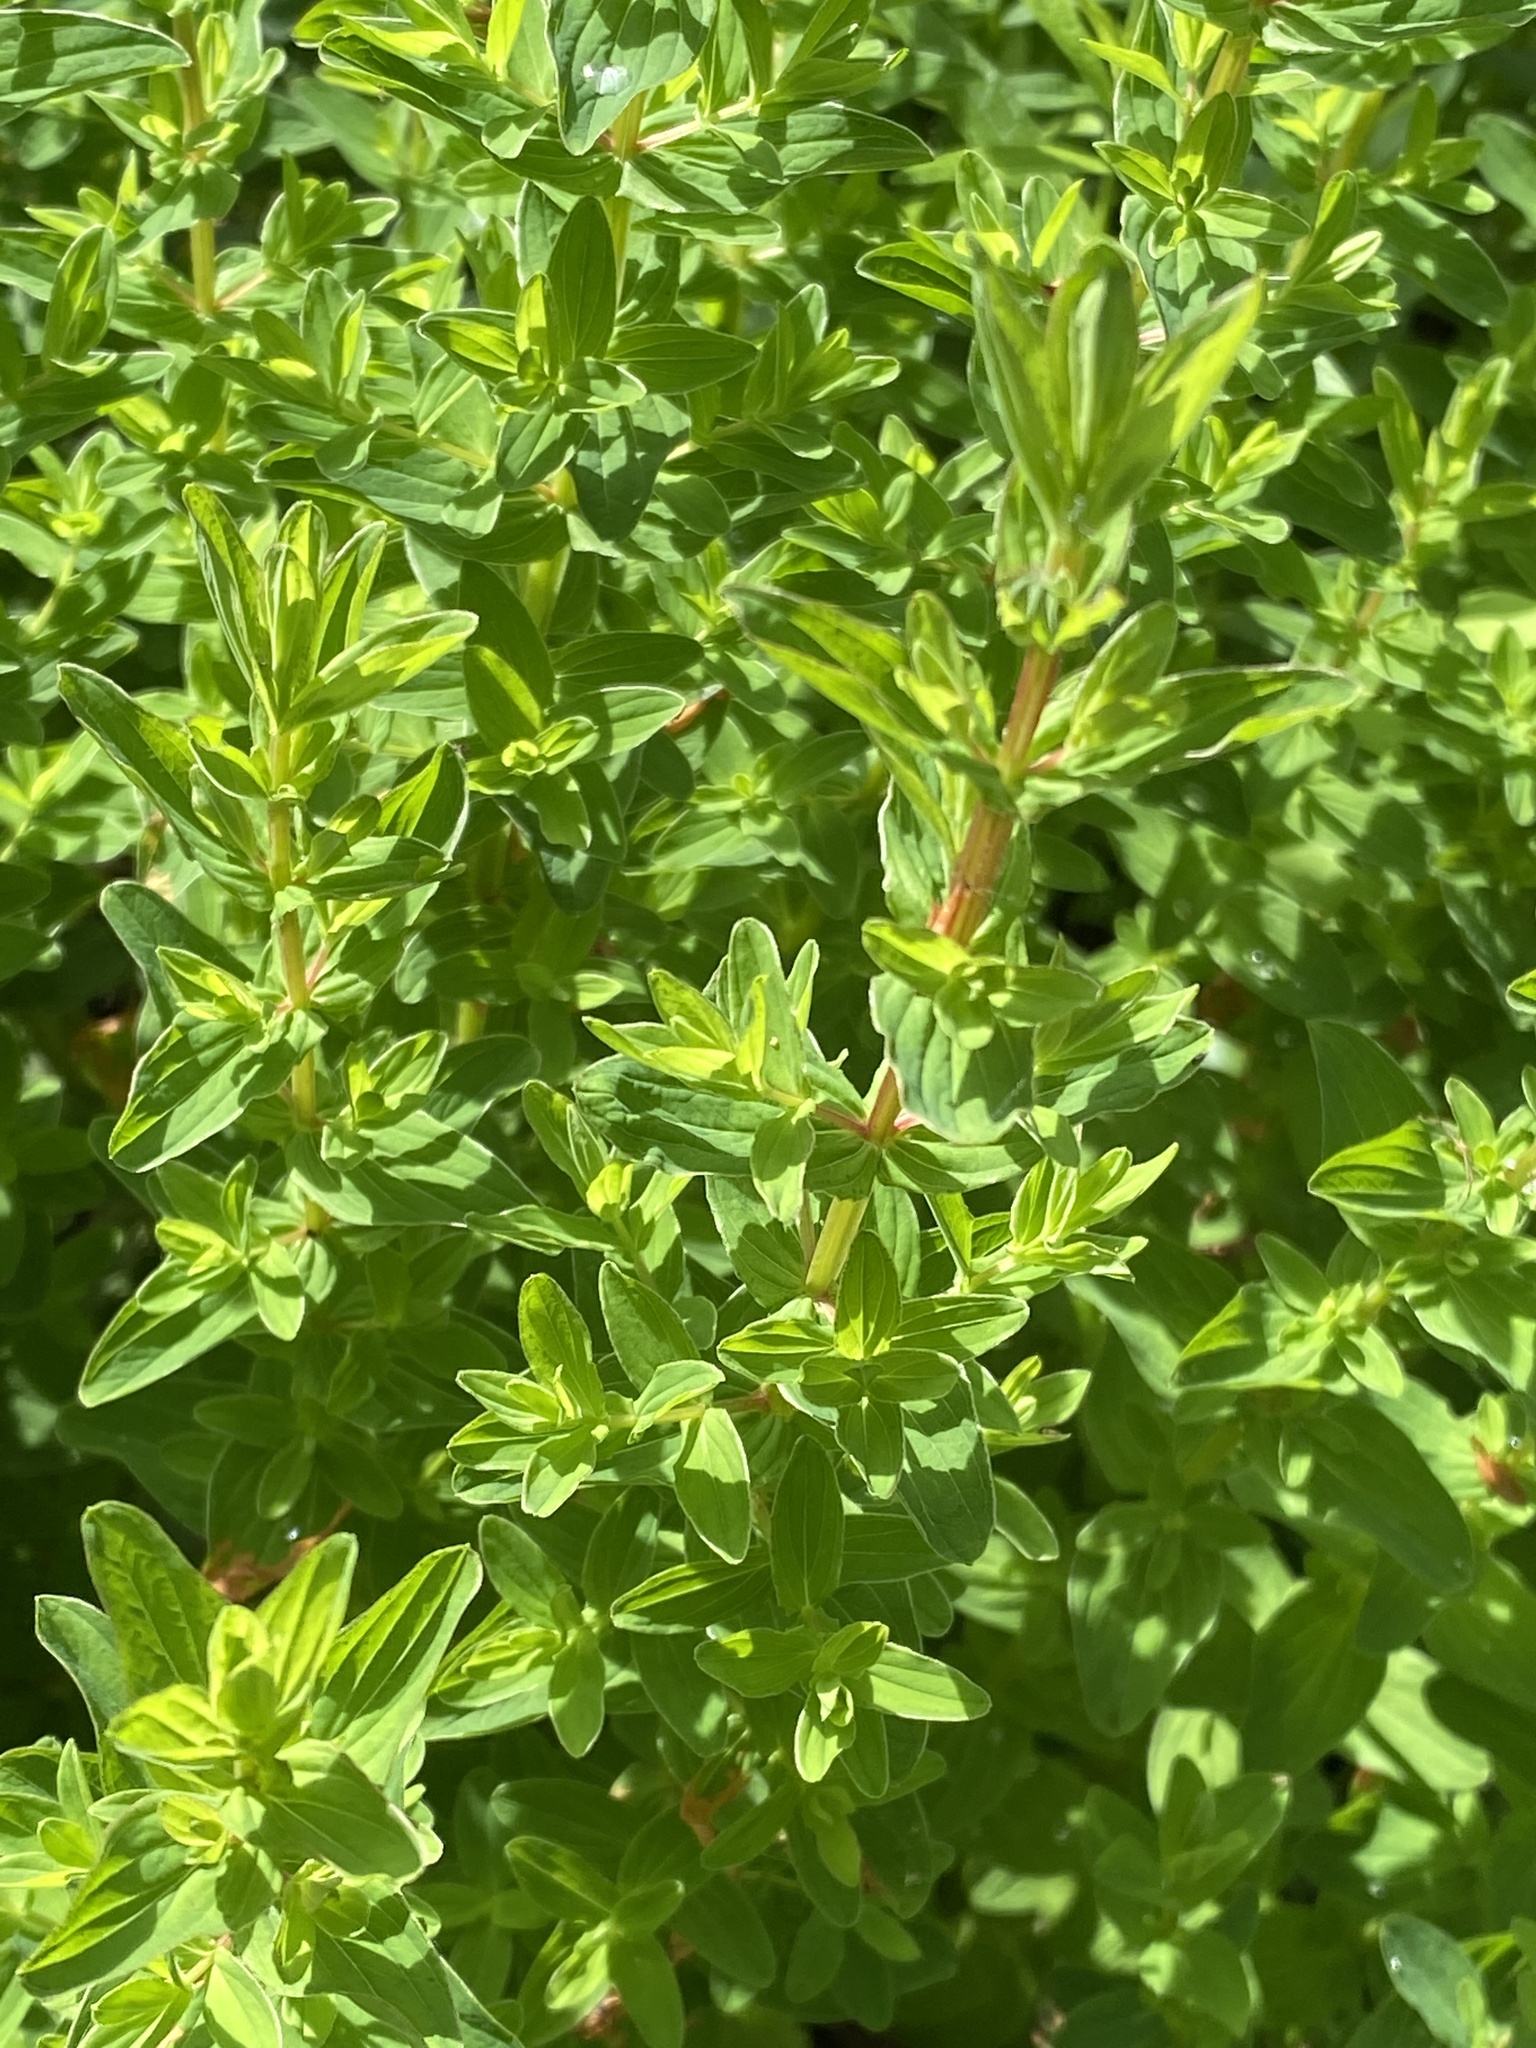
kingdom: Plantae
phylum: Tracheophyta
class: Magnoliopsida
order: Malpighiales
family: Hypericaceae
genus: Hypericum
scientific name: Hypericum tetrapterum
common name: Square-stalked st. john's-wort
